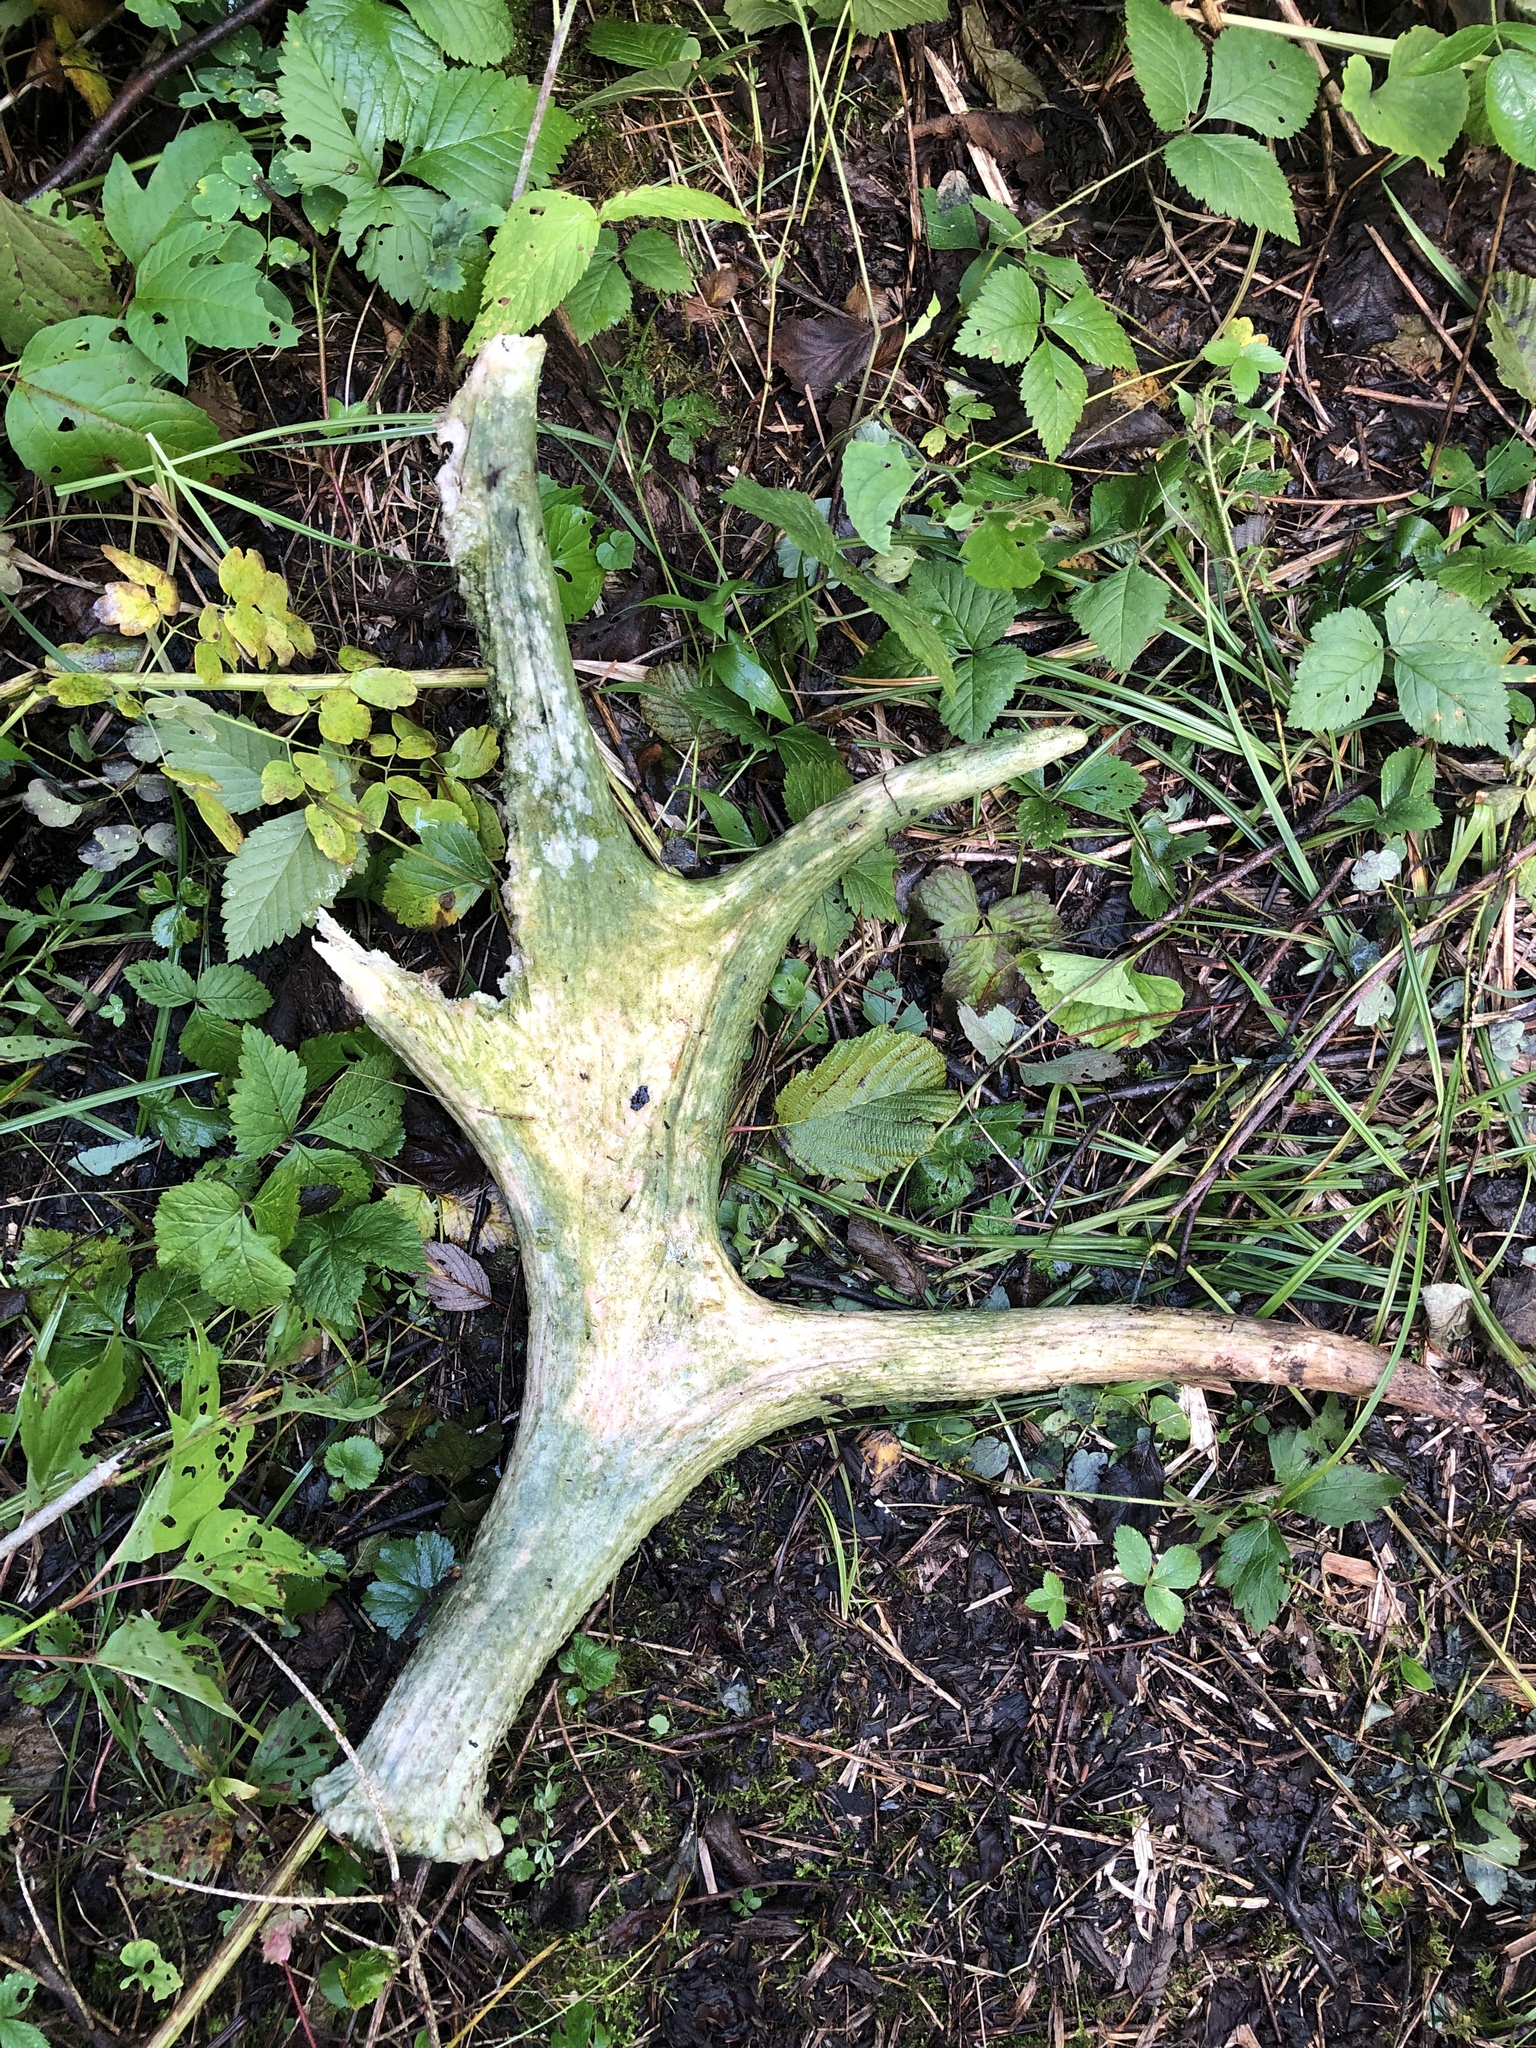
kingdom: Animalia
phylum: Chordata
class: Mammalia
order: Artiodactyla
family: Cervidae
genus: Alces
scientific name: Alces alces
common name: Moose
